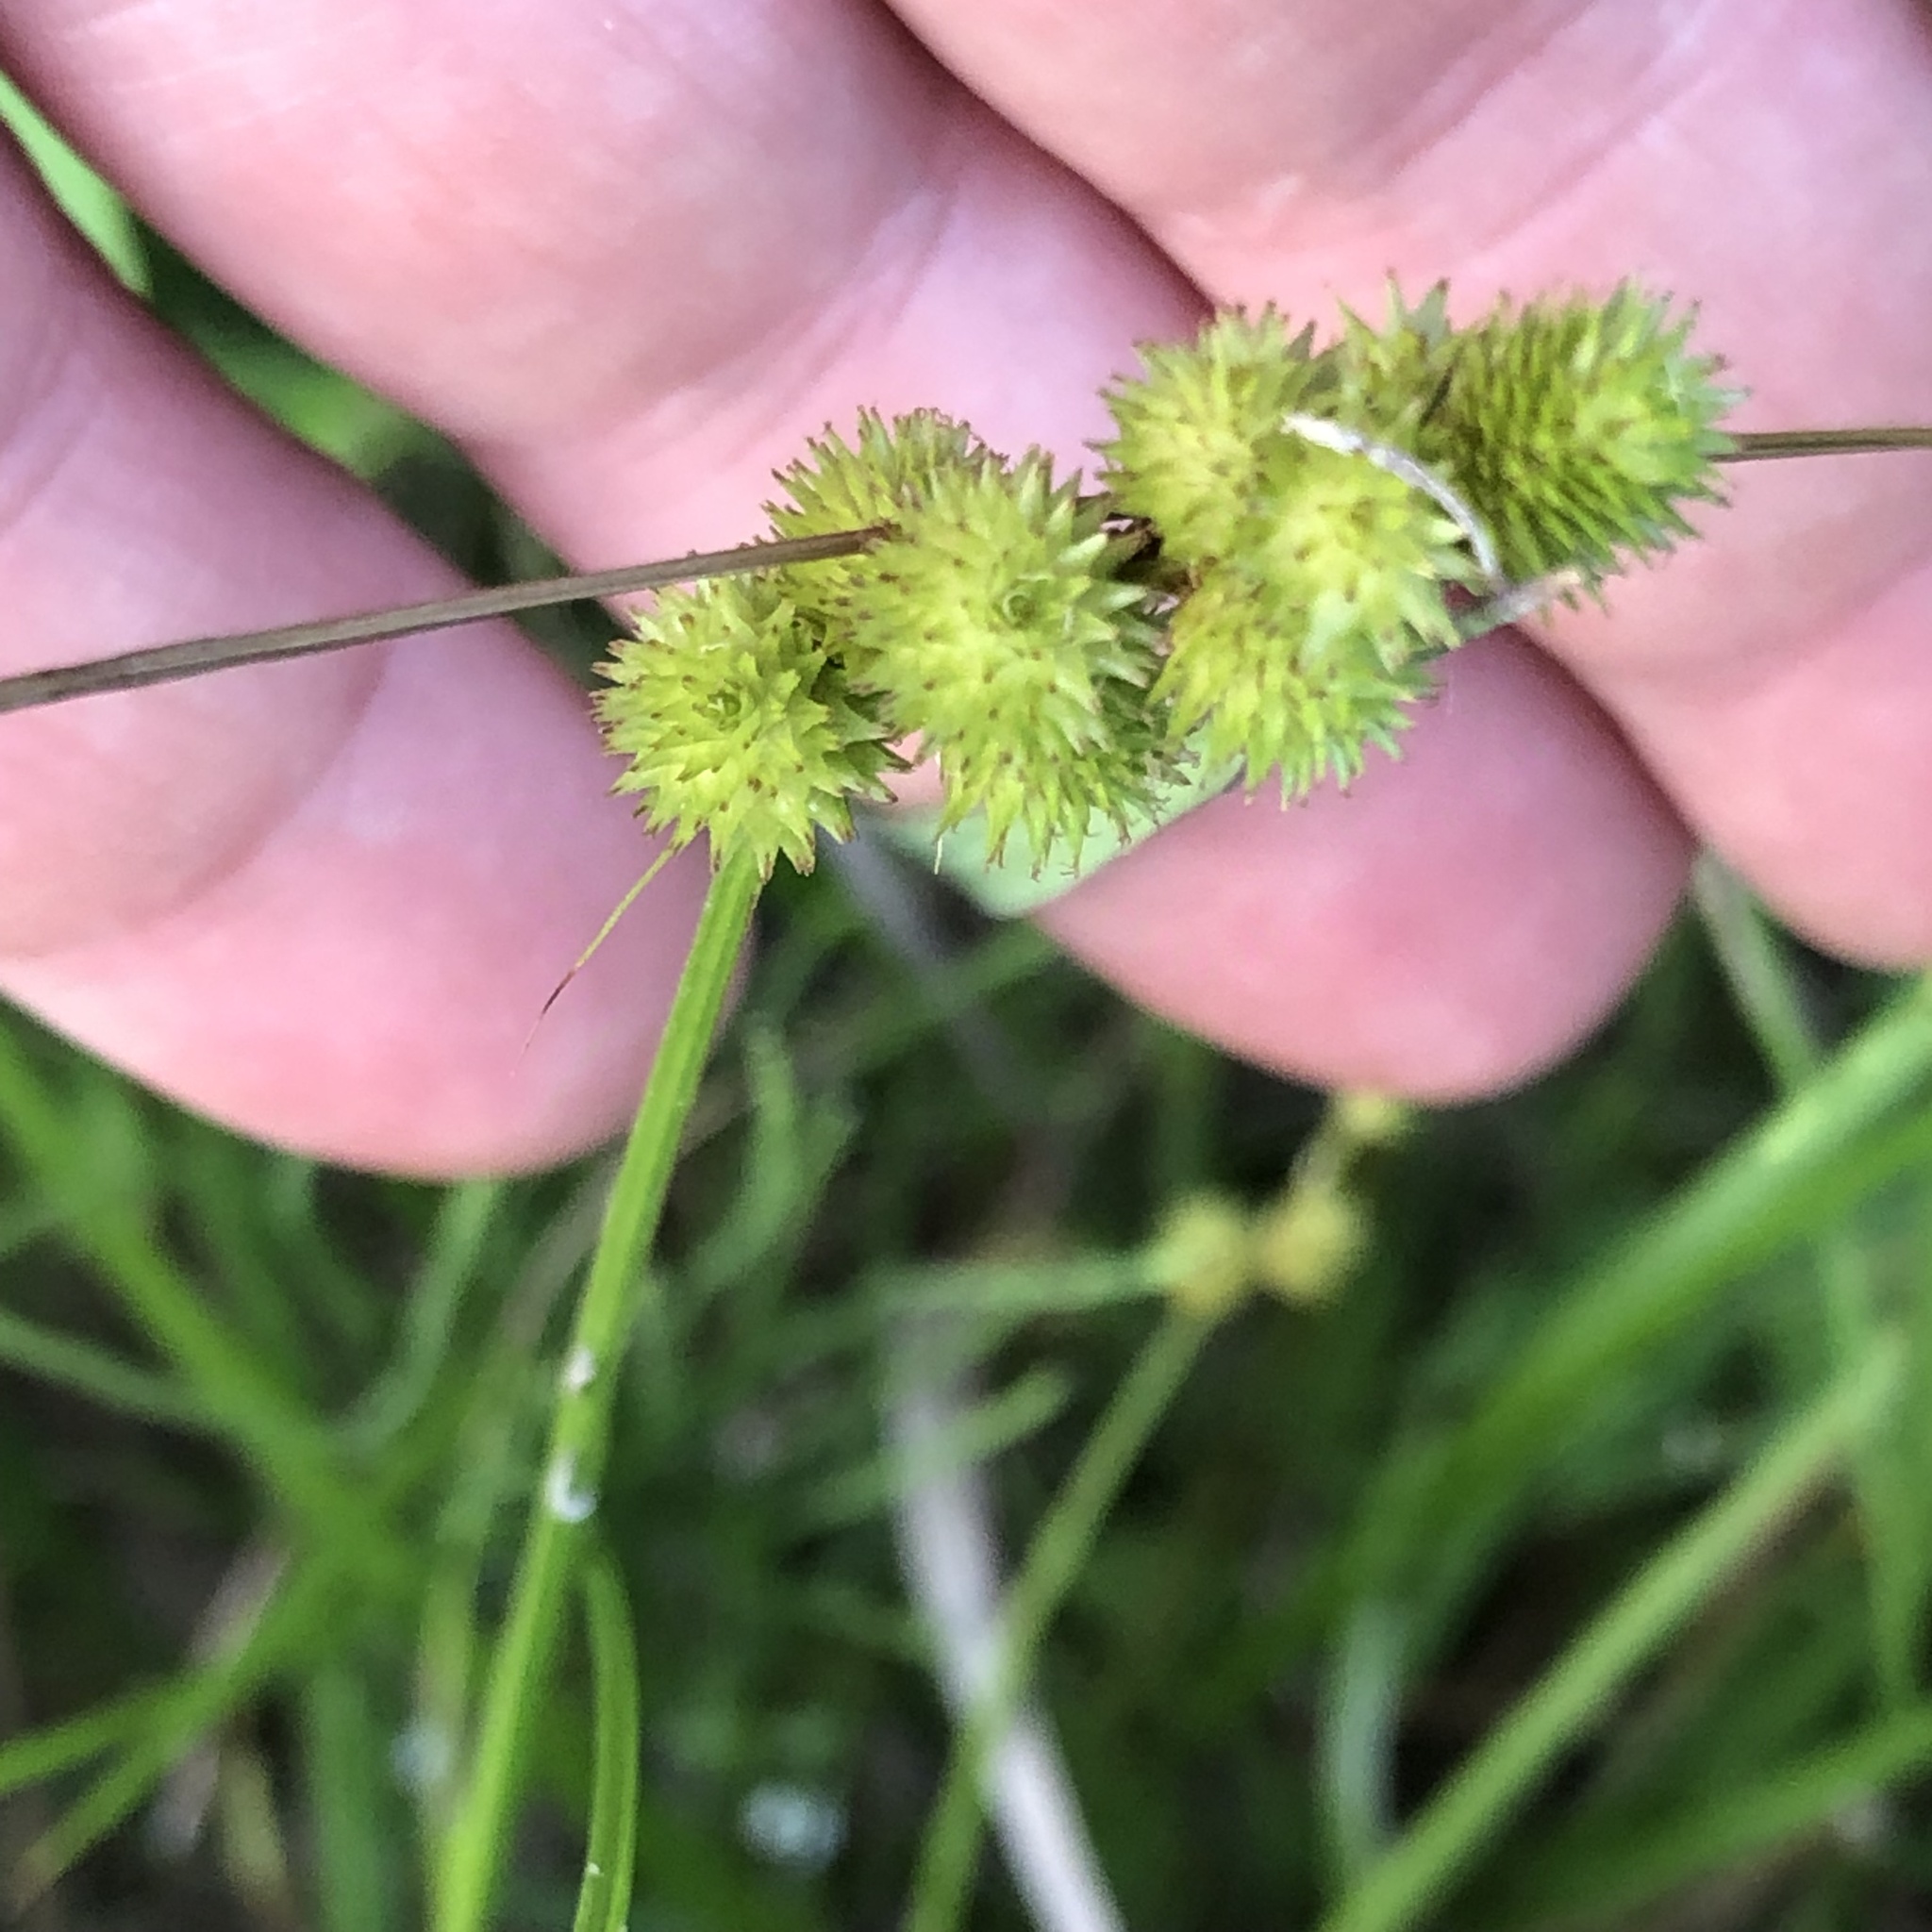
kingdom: Plantae
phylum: Tracheophyta
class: Liliopsida
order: Poales
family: Cyperaceae
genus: Carex
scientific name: Carex cristatella
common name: Crested oval sedge
